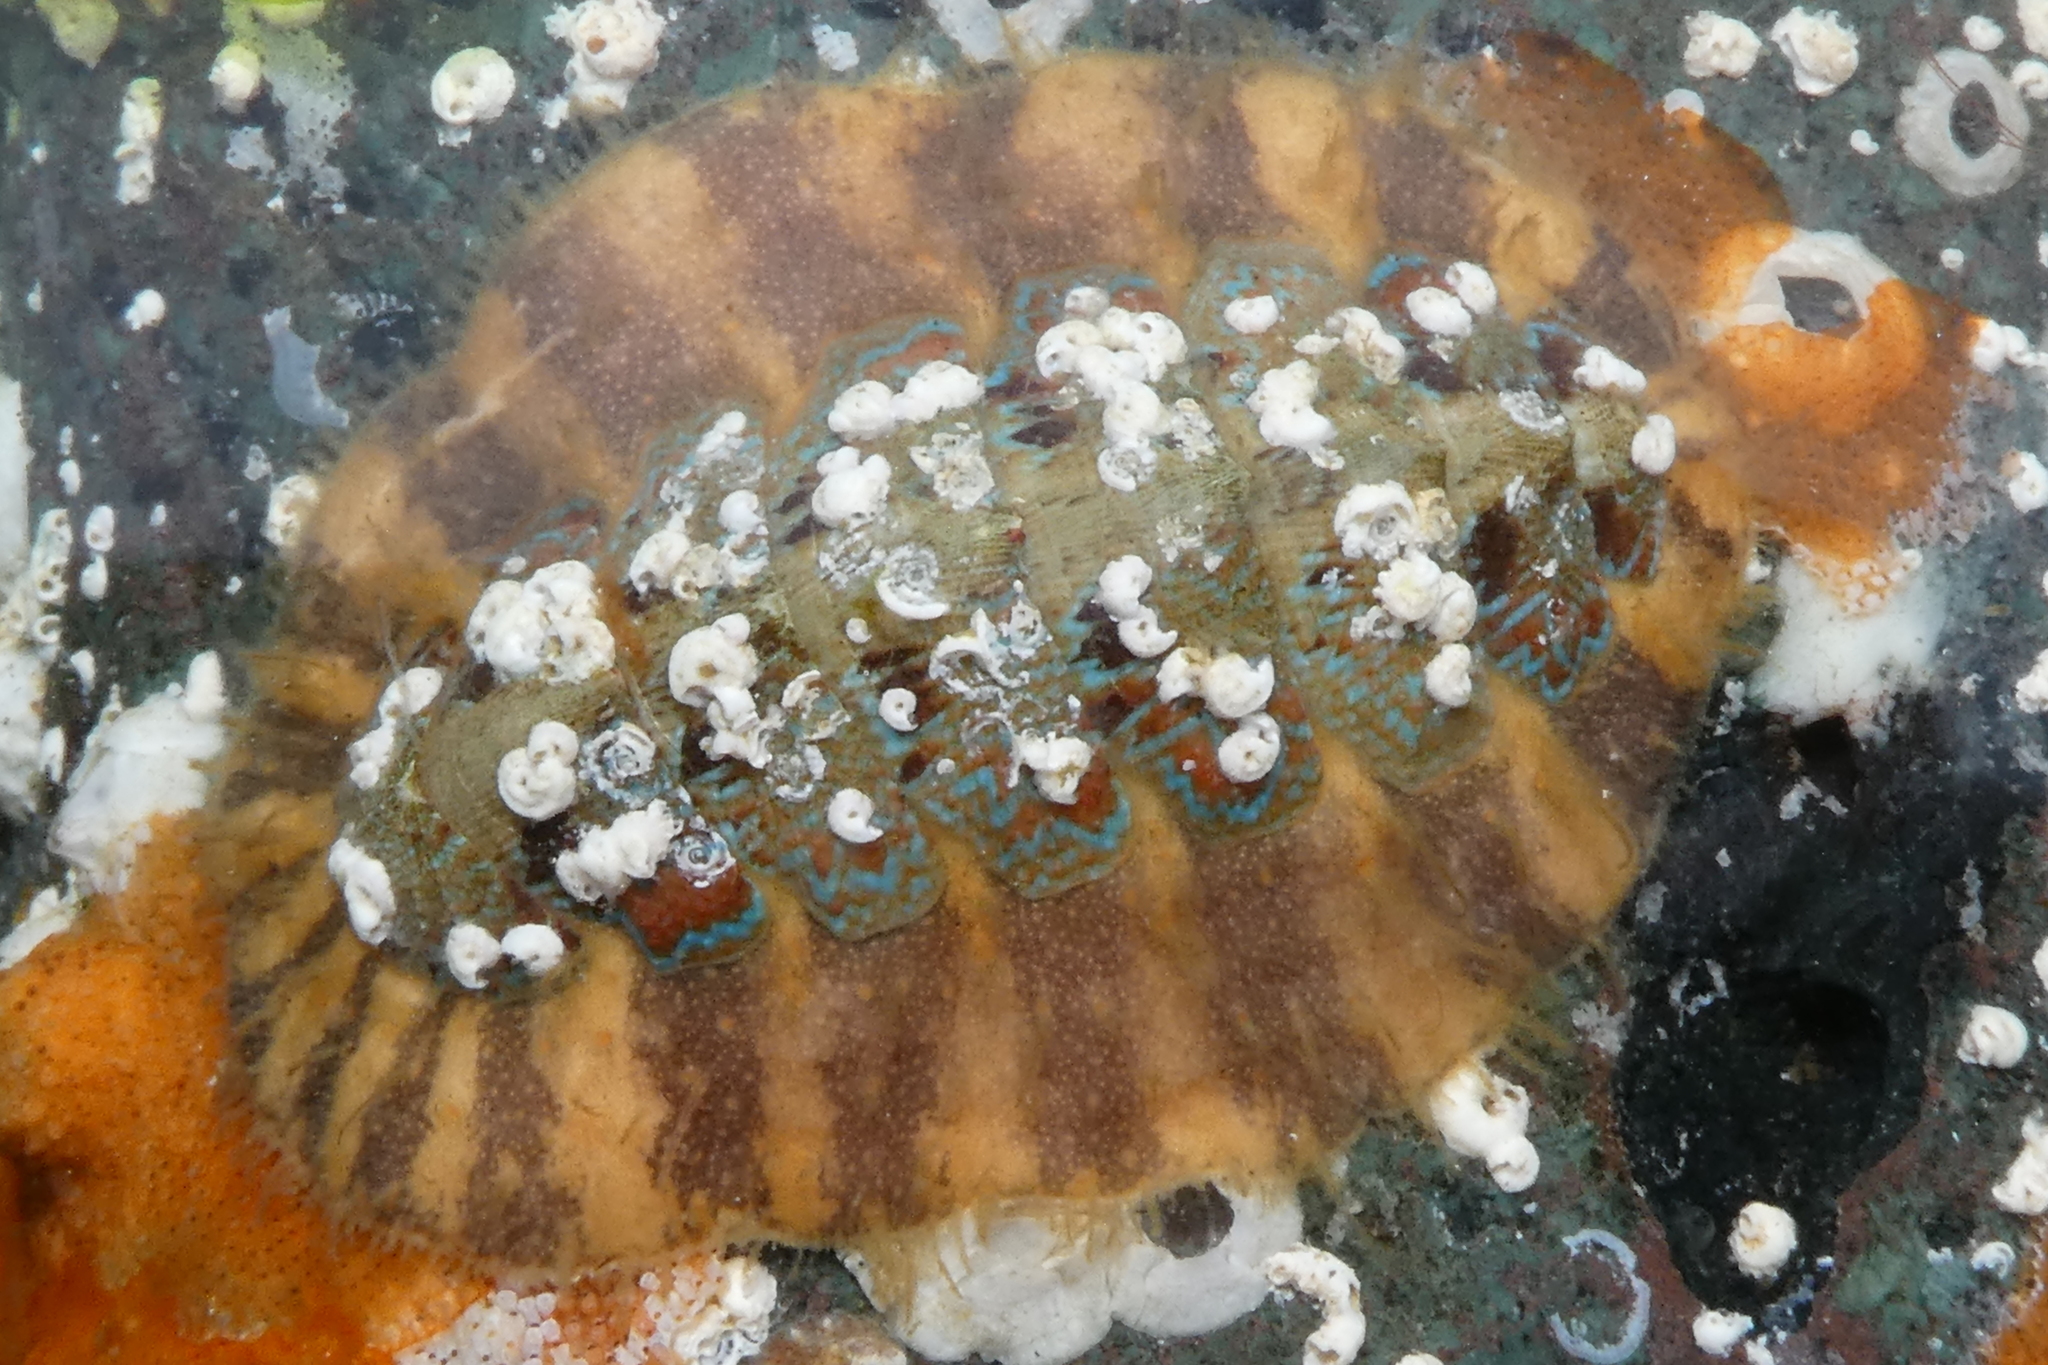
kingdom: Animalia
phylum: Mollusca
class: Polyplacophora
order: Chitonida
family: Mopaliidae
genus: Mopalia
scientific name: Mopalia spectabilis
